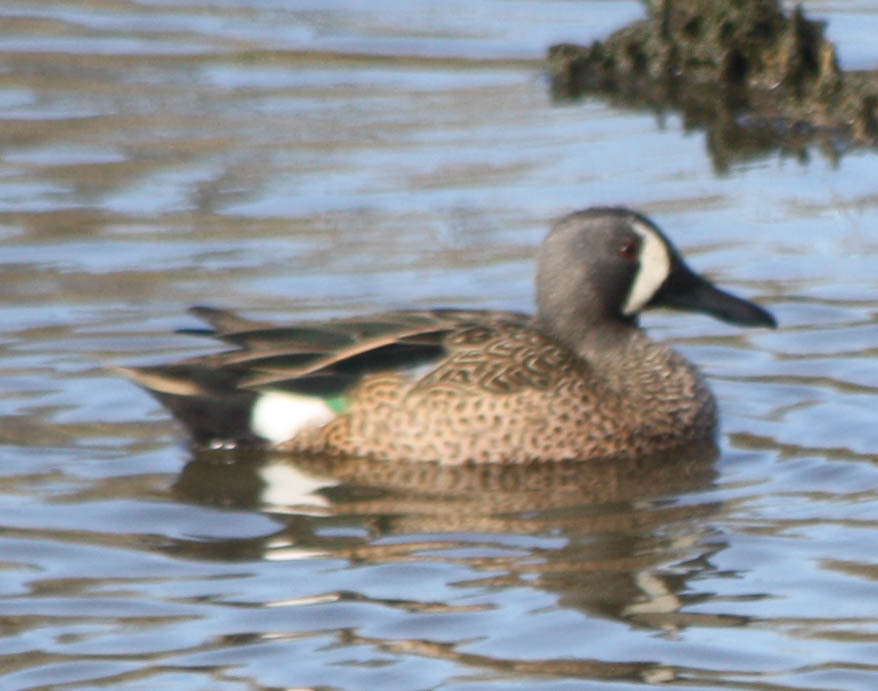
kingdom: Animalia
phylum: Chordata
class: Aves
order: Anseriformes
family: Anatidae
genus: Spatula
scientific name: Spatula discors
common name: Blue-winged teal
